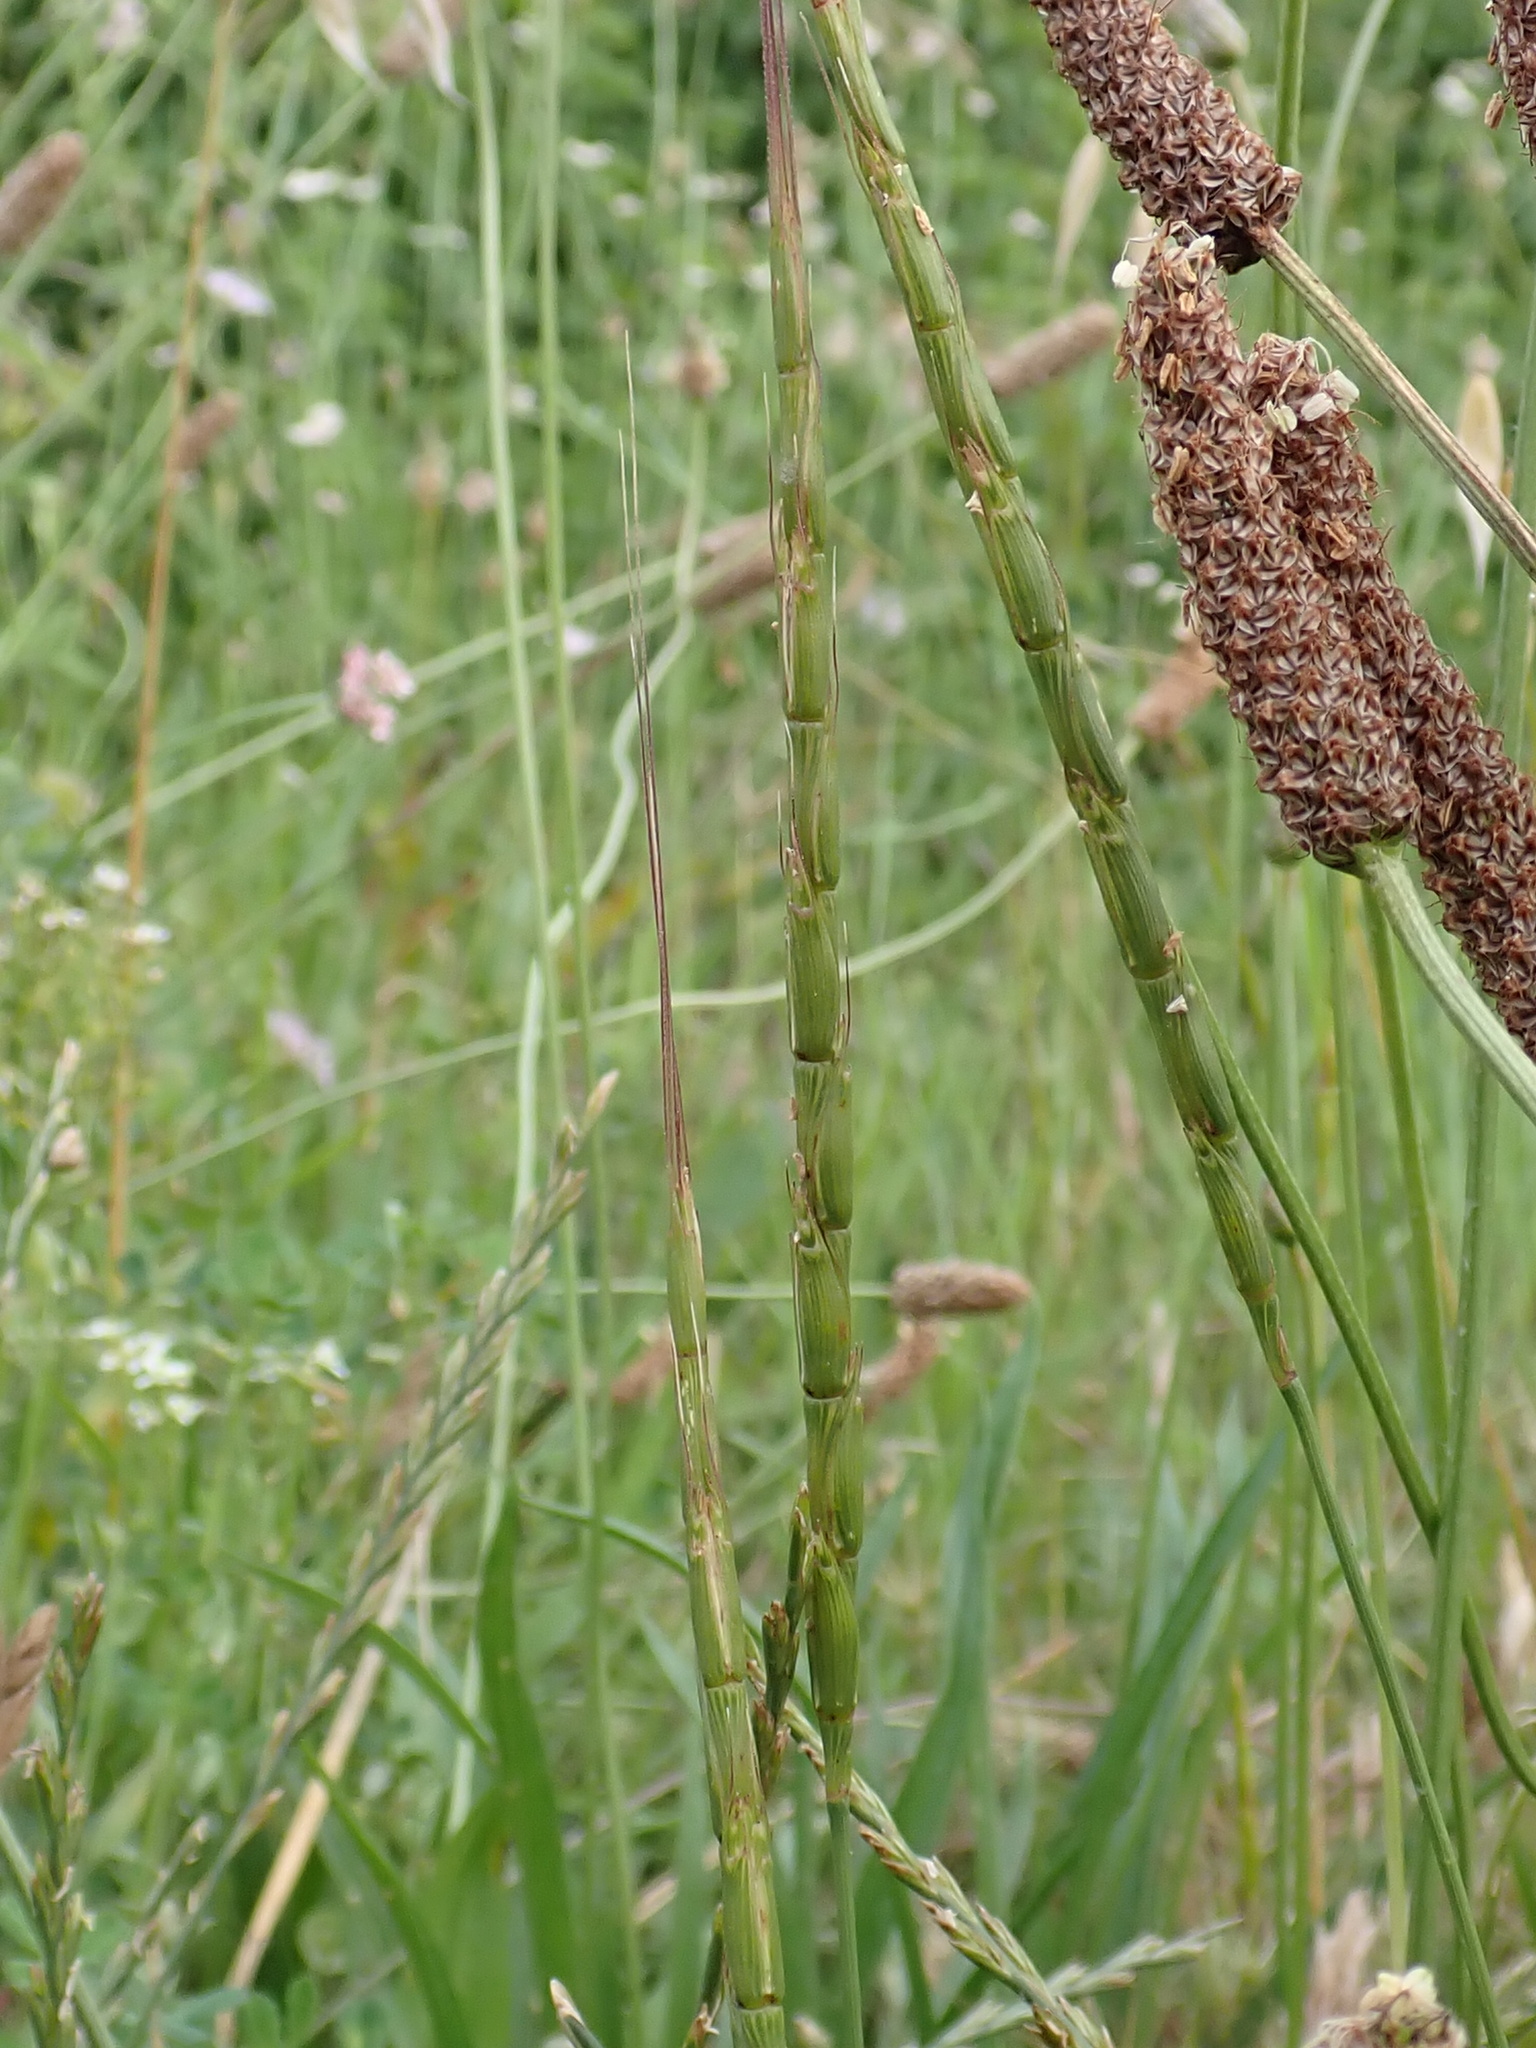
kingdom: Plantae
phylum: Tracheophyta
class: Liliopsida
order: Poales
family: Poaceae
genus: Aegilops
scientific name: Aegilops cylindrica
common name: Jointed goatgrass
